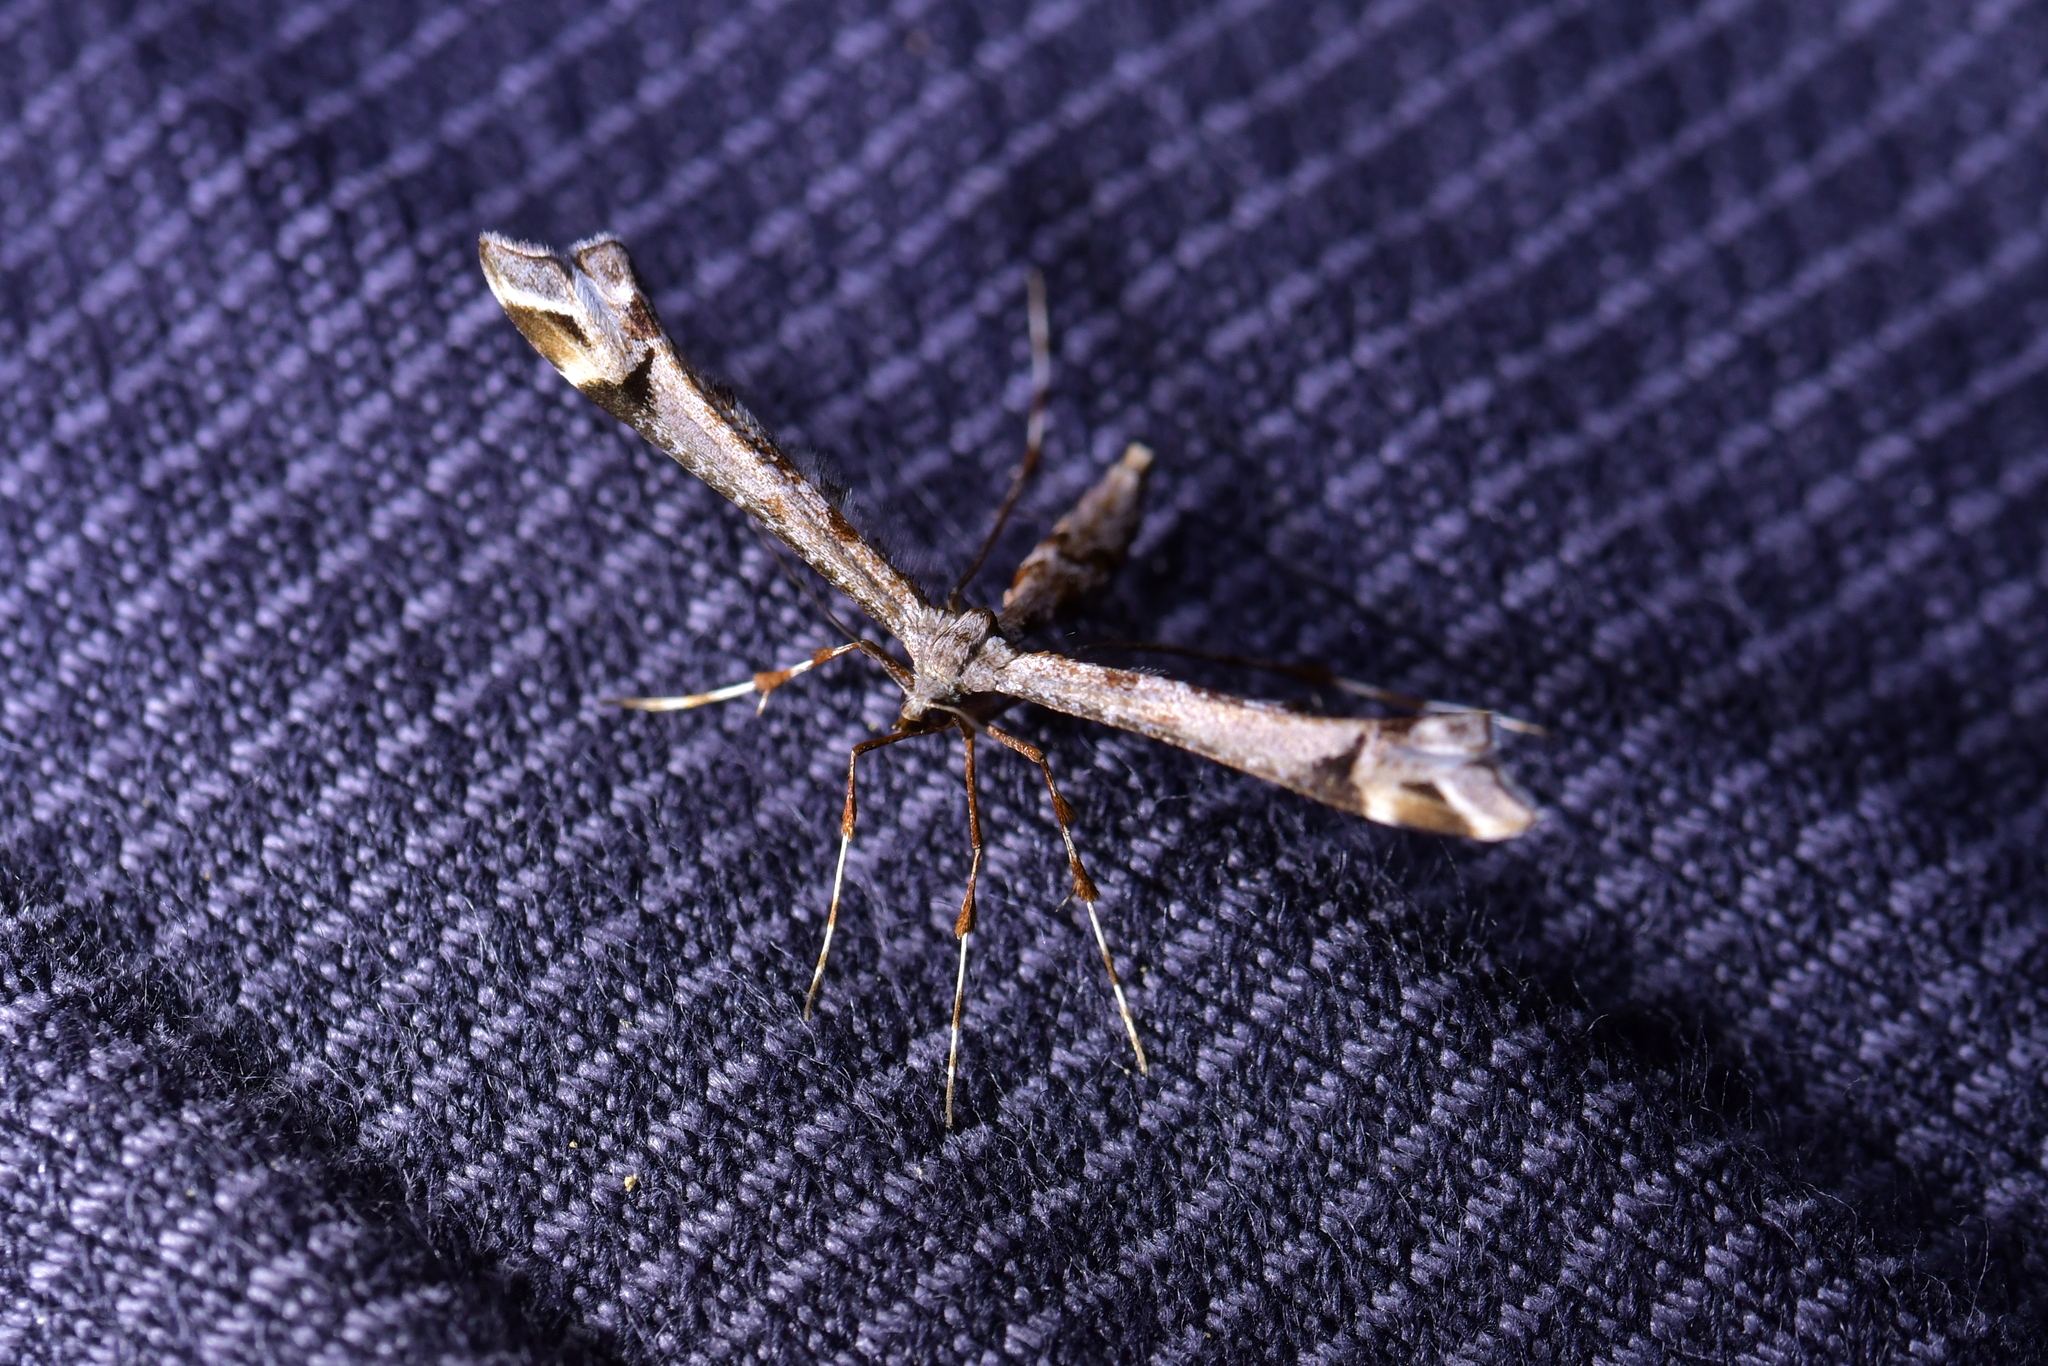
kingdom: Animalia
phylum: Arthropoda
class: Insecta
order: Lepidoptera
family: Pterophoridae
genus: Amblyptilia
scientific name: Amblyptilia falcatalis
